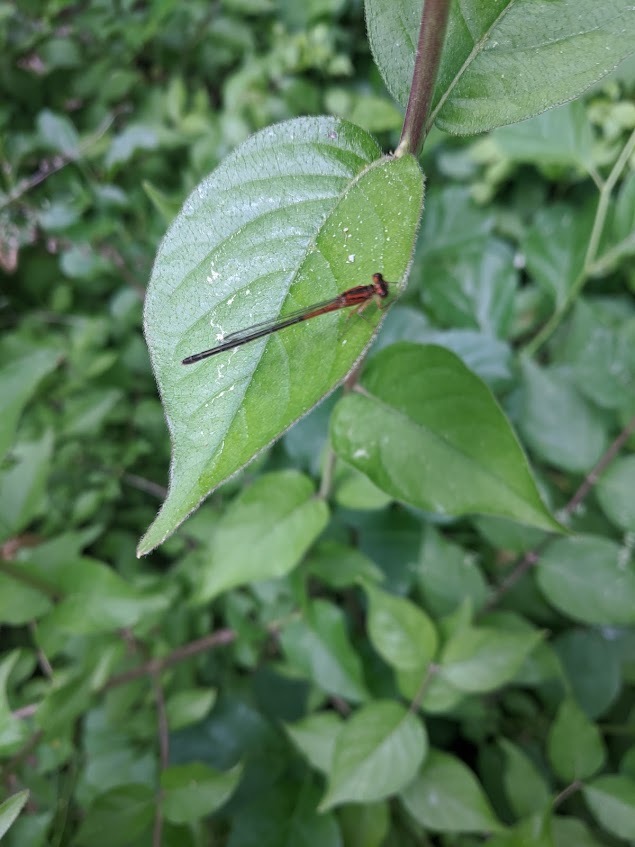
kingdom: Animalia
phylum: Arthropoda
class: Insecta
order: Odonata
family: Coenagrionidae
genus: Ischnura
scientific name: Ischnura verticalis
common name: Eastern forktail
